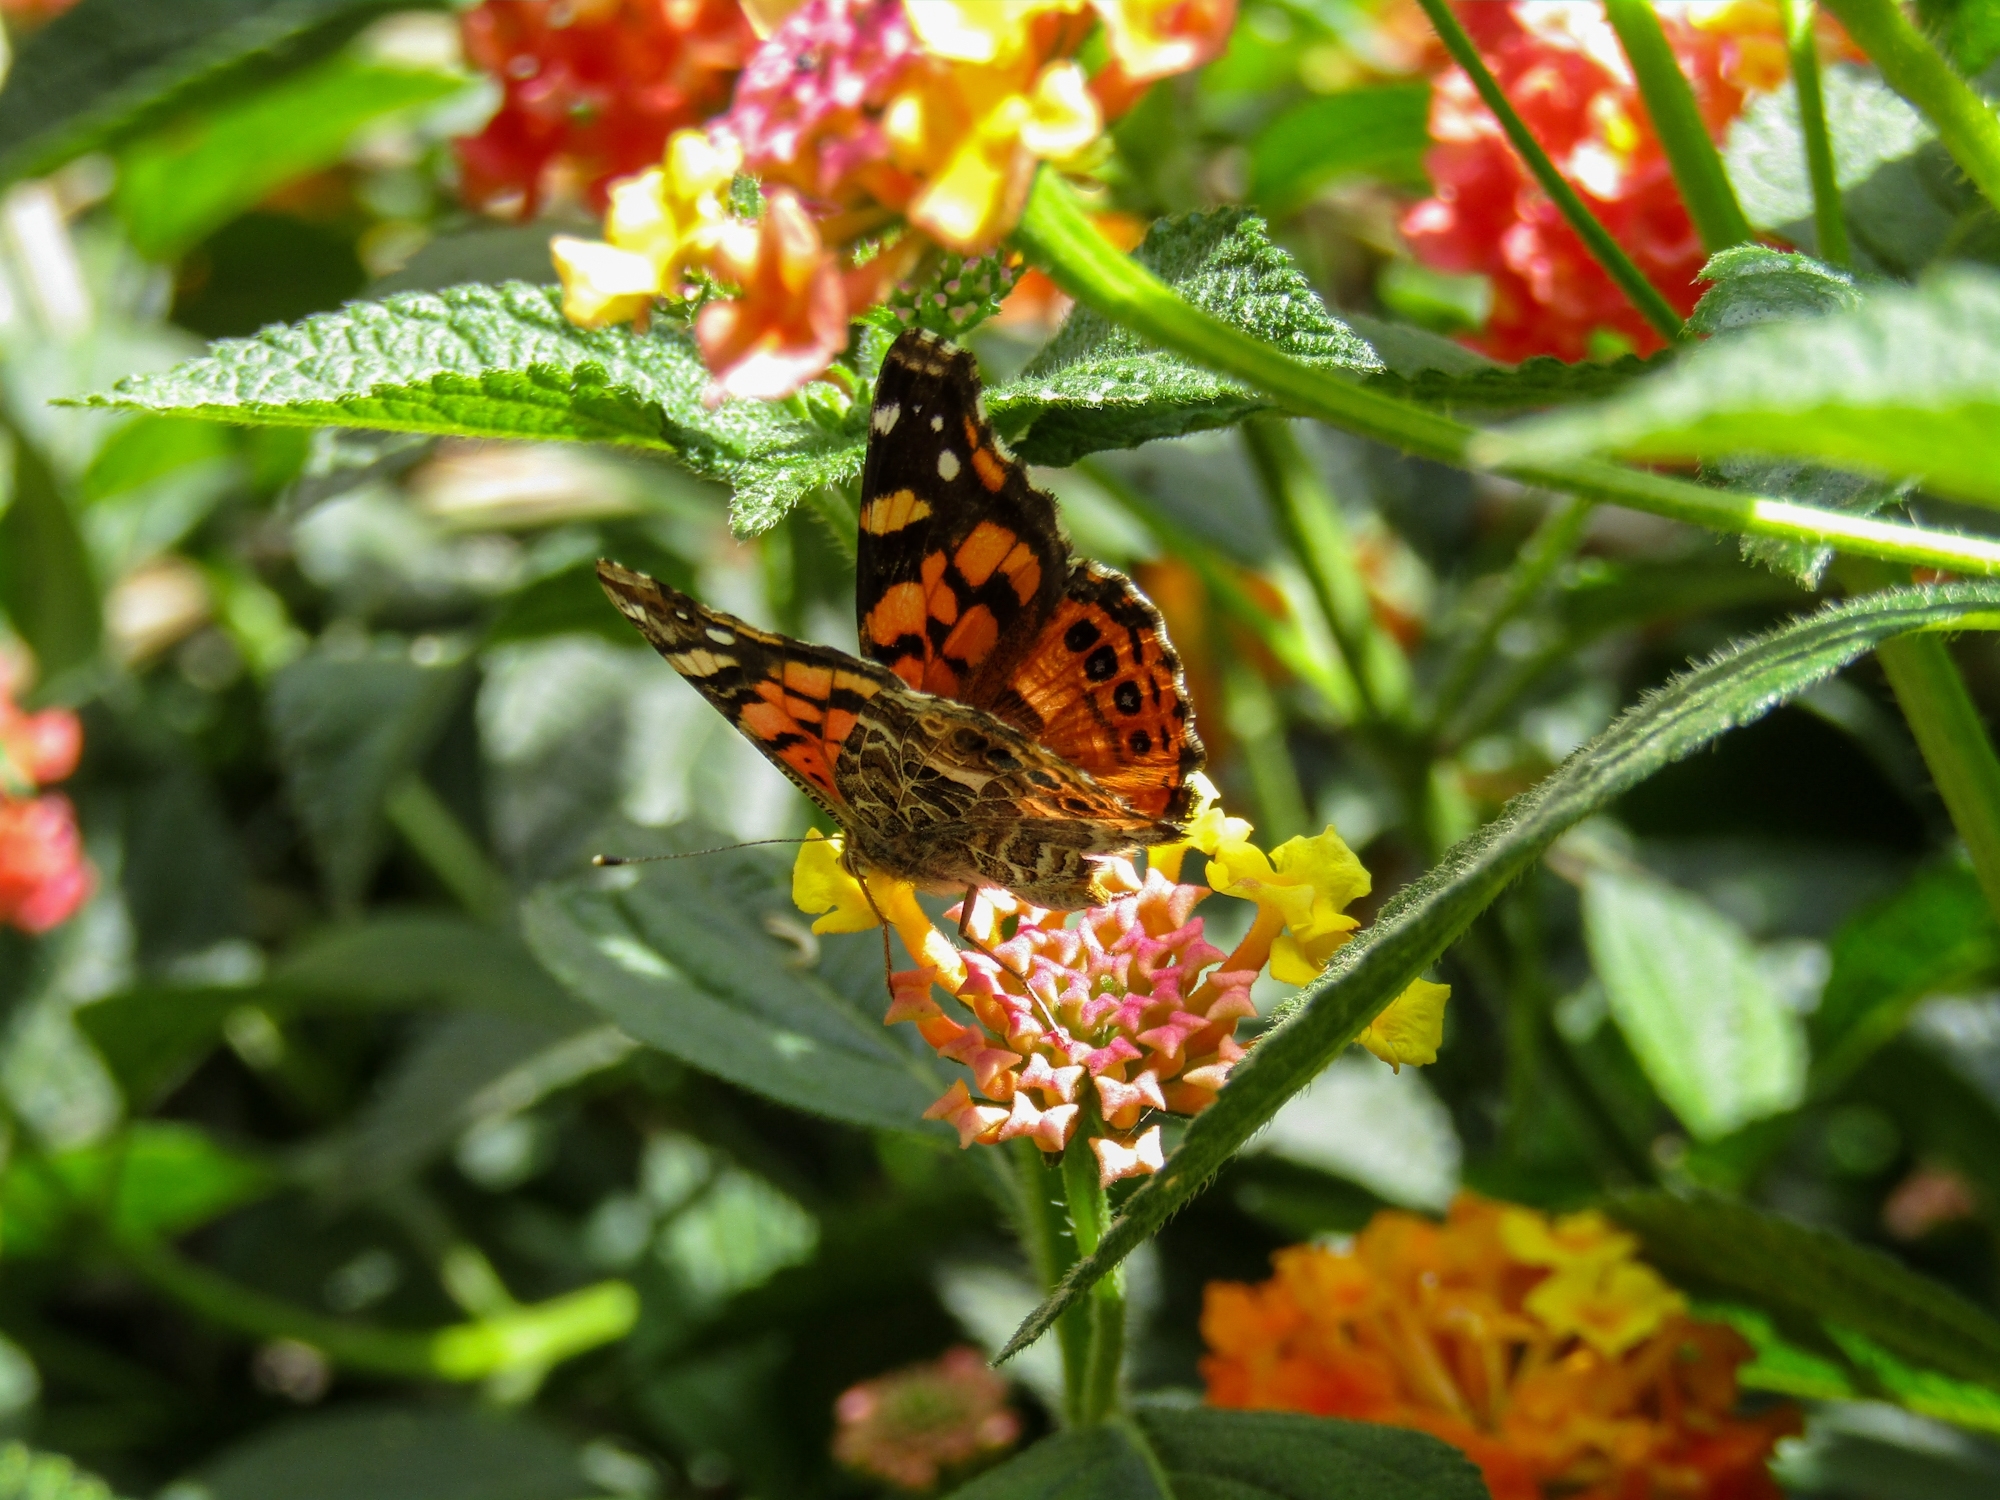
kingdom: Animalia
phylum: Arthropoda
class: Insecta
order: Lepidoptera
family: Nymphalidae
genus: Vanessa
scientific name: Vanessa carye
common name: Subtropical lady
